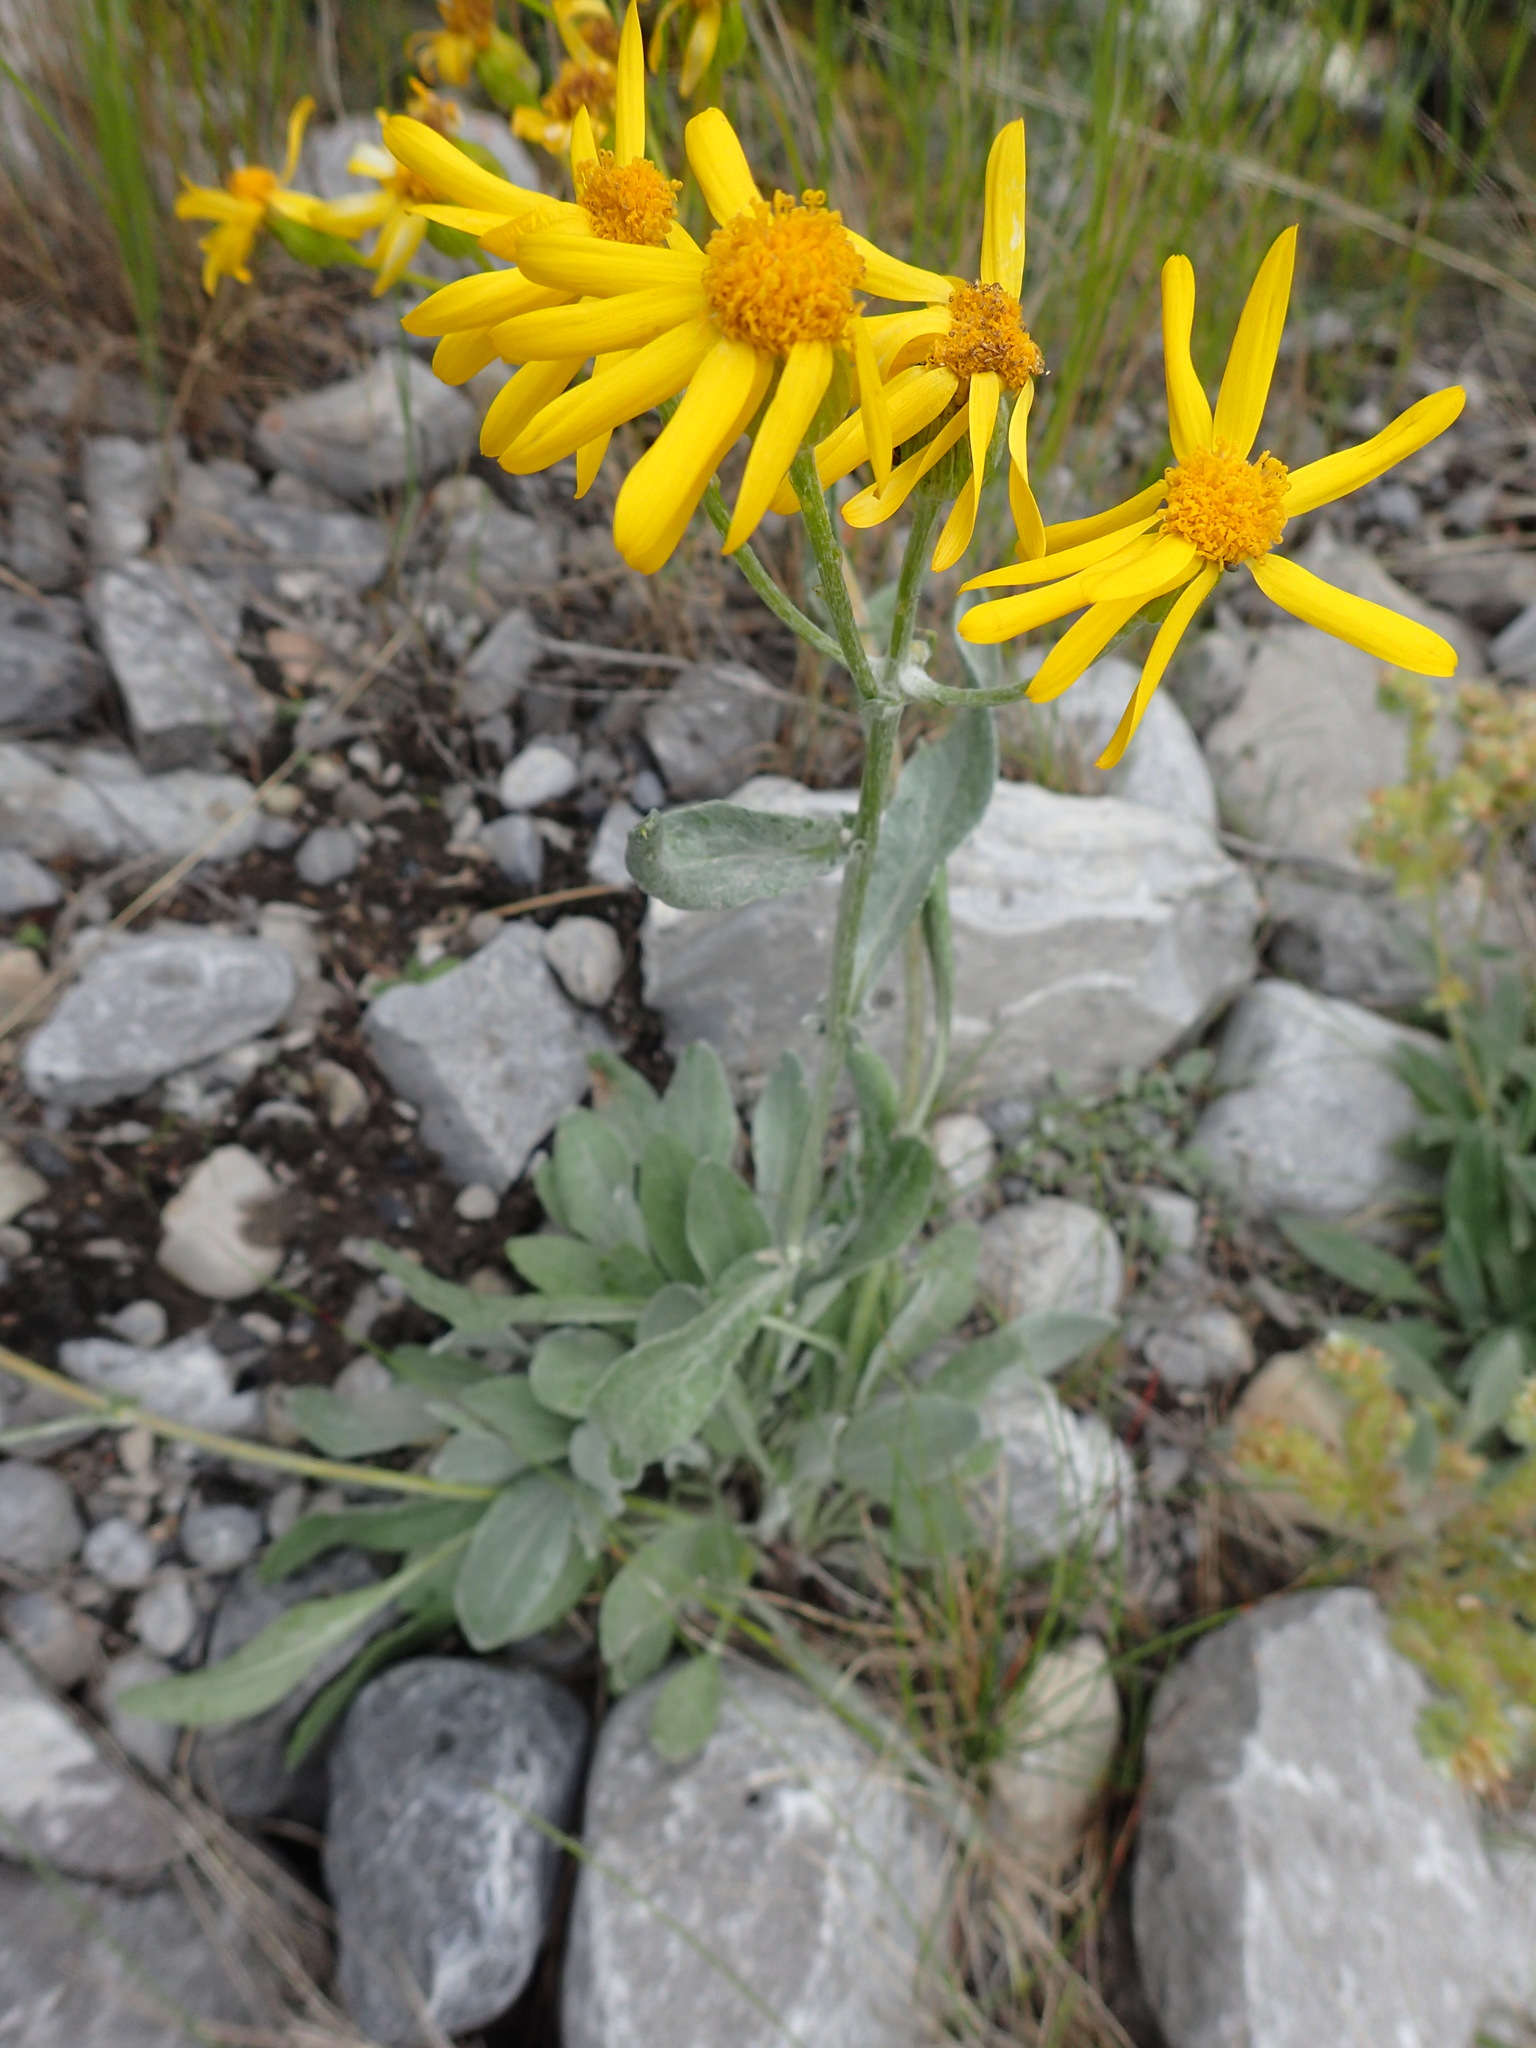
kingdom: Plantae
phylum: Tracheophyta
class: Magnoliopsida
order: Asterales
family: Asteraceae
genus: Packera
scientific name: Packera cana
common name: Woolly groundsel
